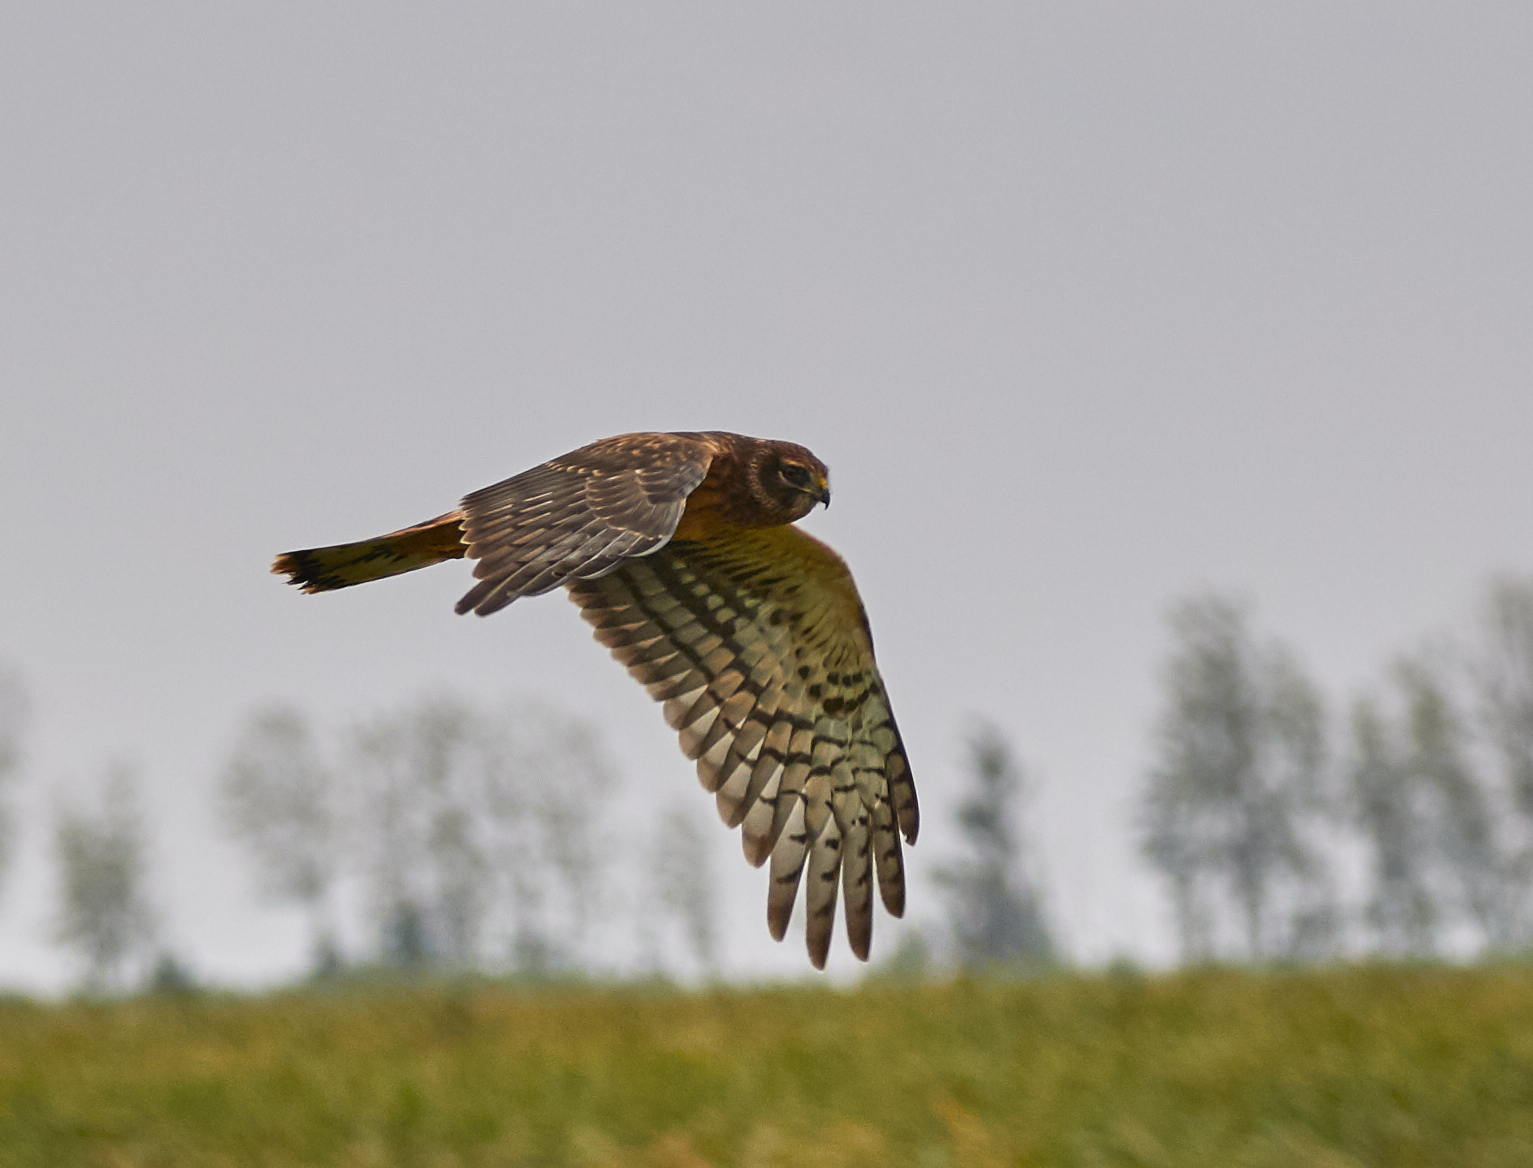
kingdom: Animalia
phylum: Chordata
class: Aves
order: Accipitriformes
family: Accipitridae
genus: Circus
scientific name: Circus cyaneus
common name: Hen harrier
